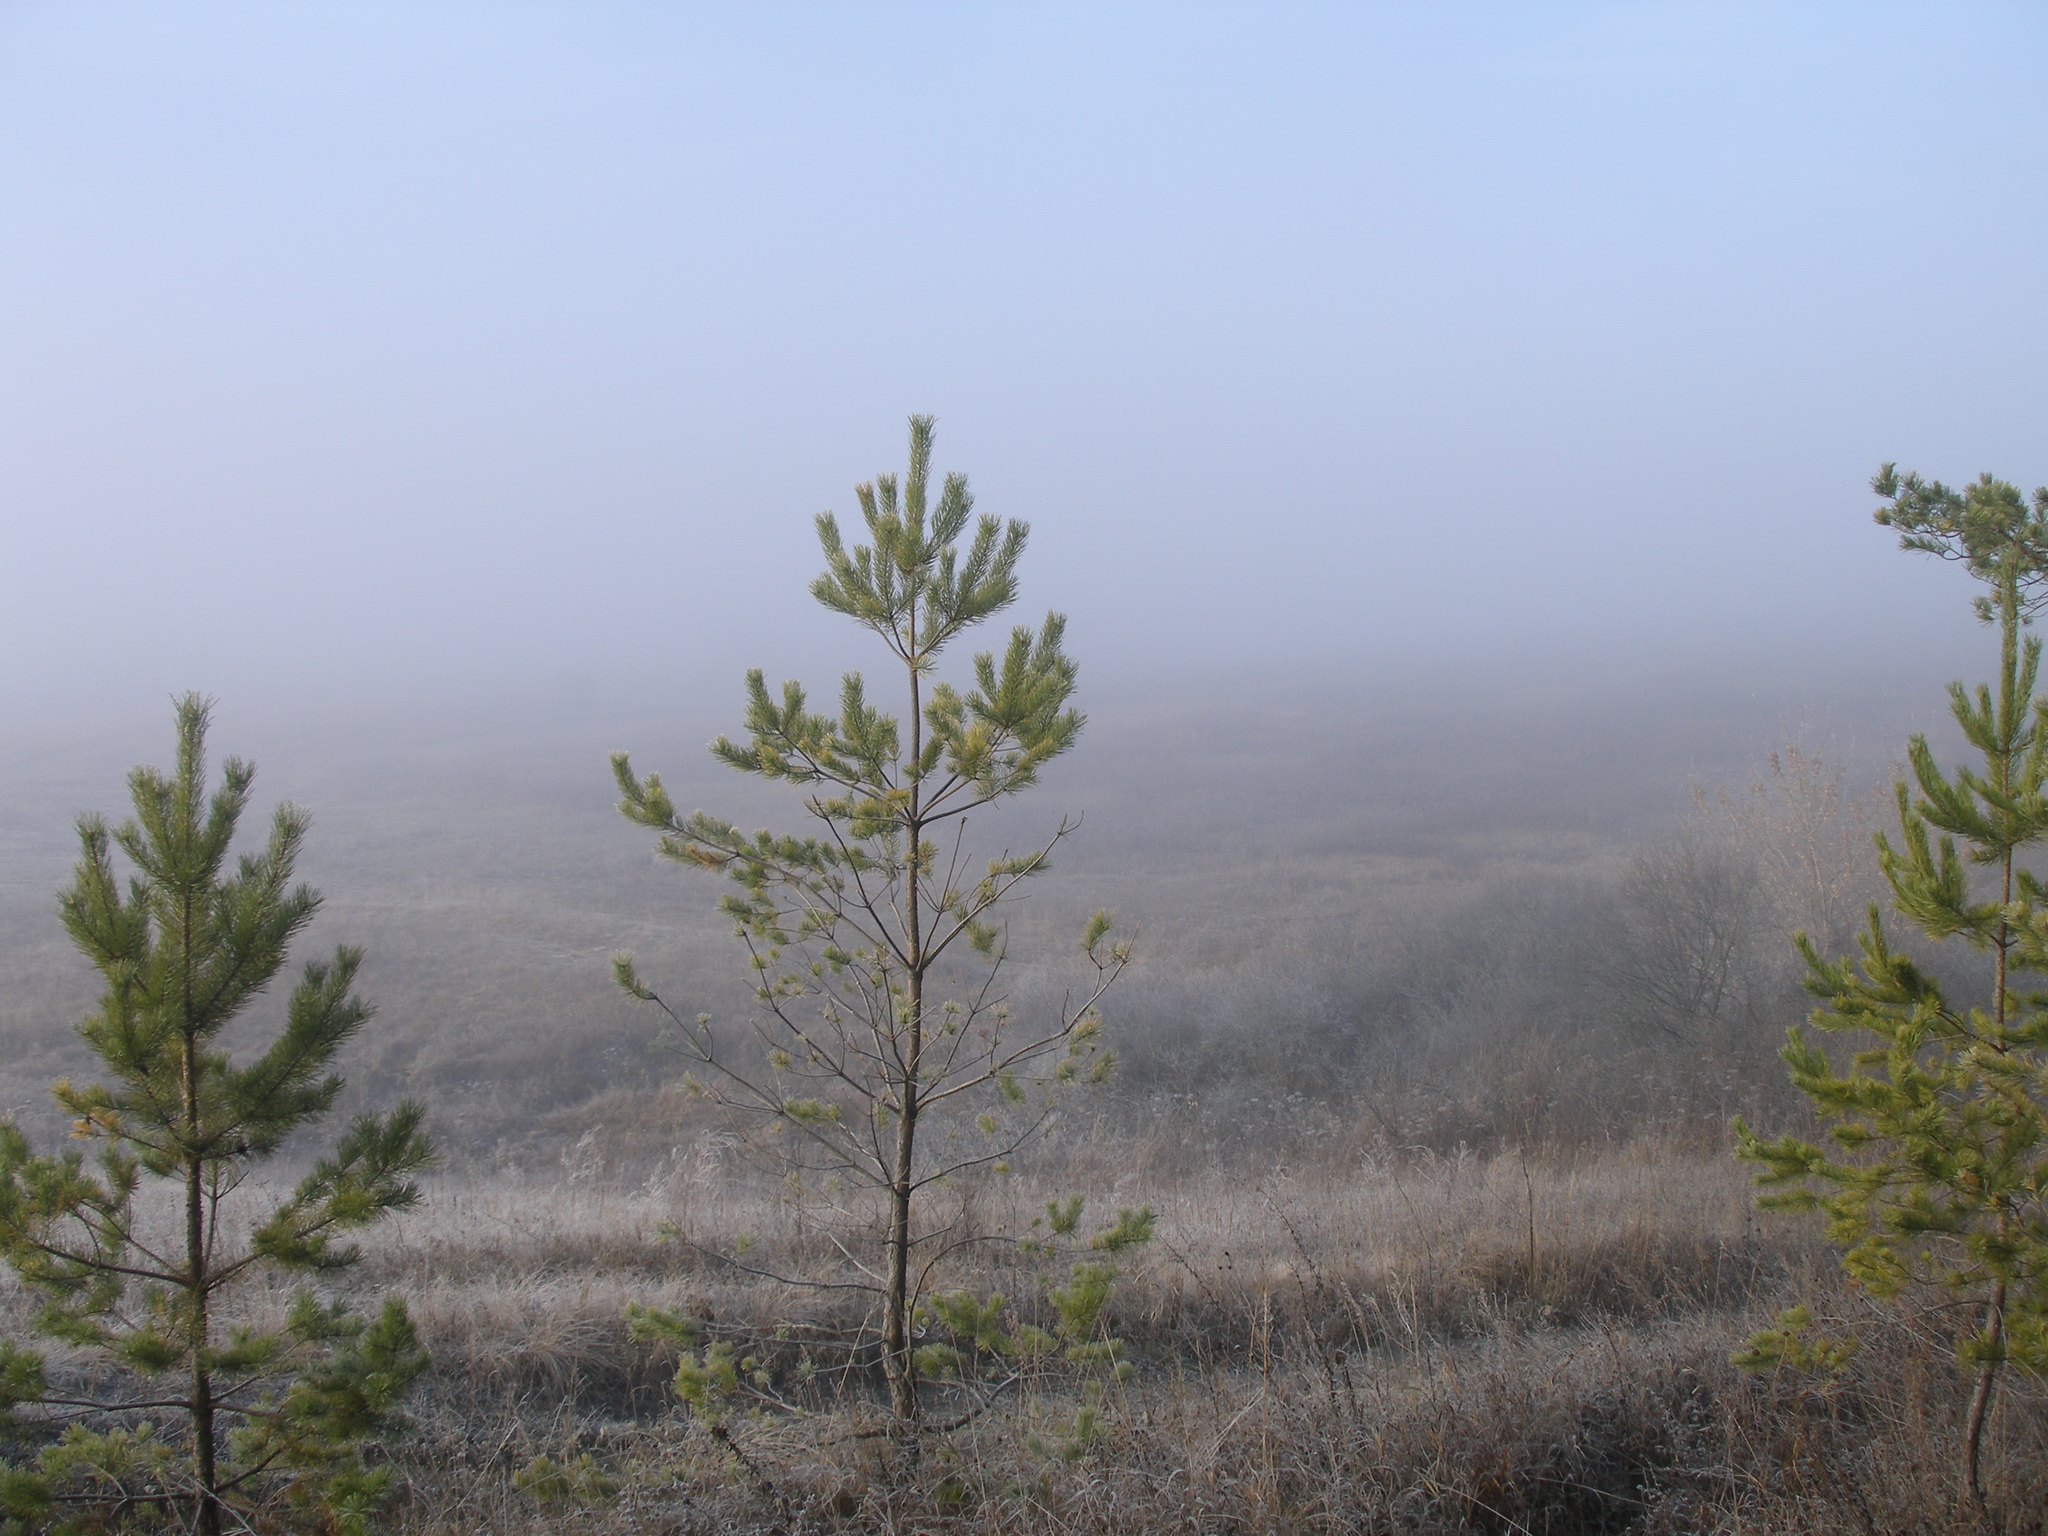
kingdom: Plantae
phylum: Tracheophyta
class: Pinopsida
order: Pinales
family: Pinaceae
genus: Pinus
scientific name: Pinus sylvestris
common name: Scots pine
